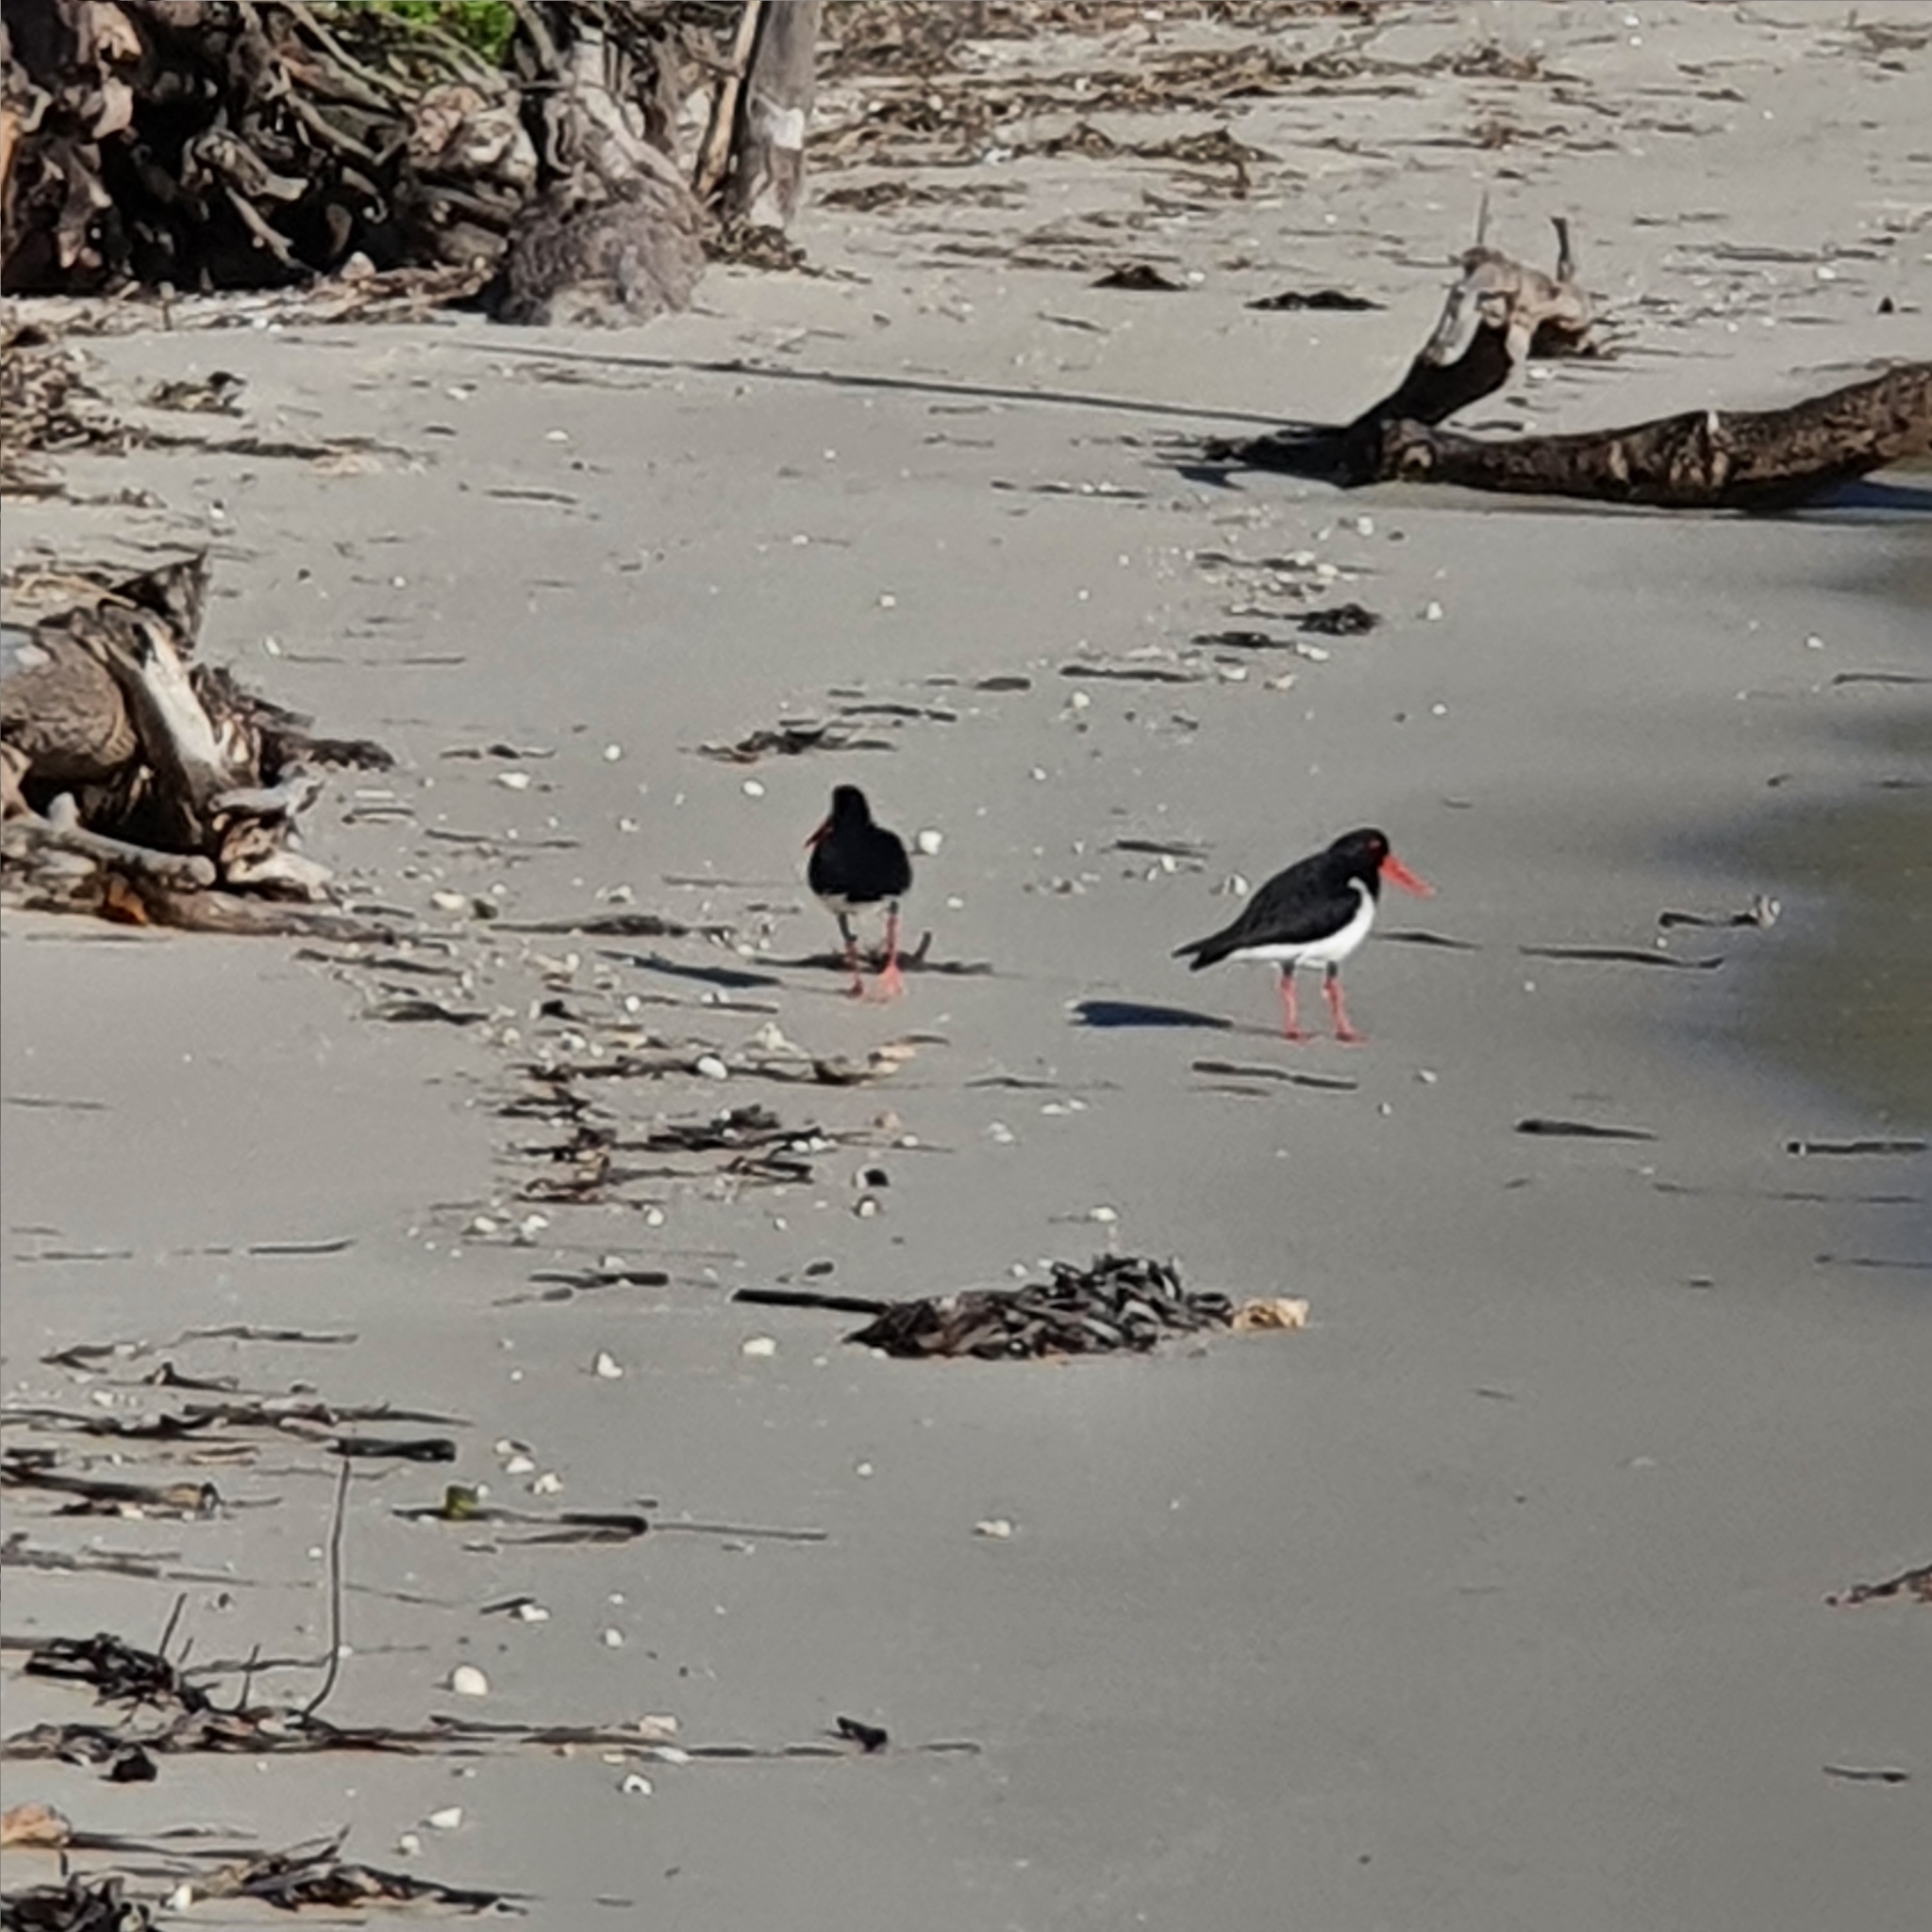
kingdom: Animalia
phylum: Chordata
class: Aves
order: Charadriiformes
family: Haematopodidae
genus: Haematopus
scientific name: Haematopus longirostris
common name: Pied oystercatcher
